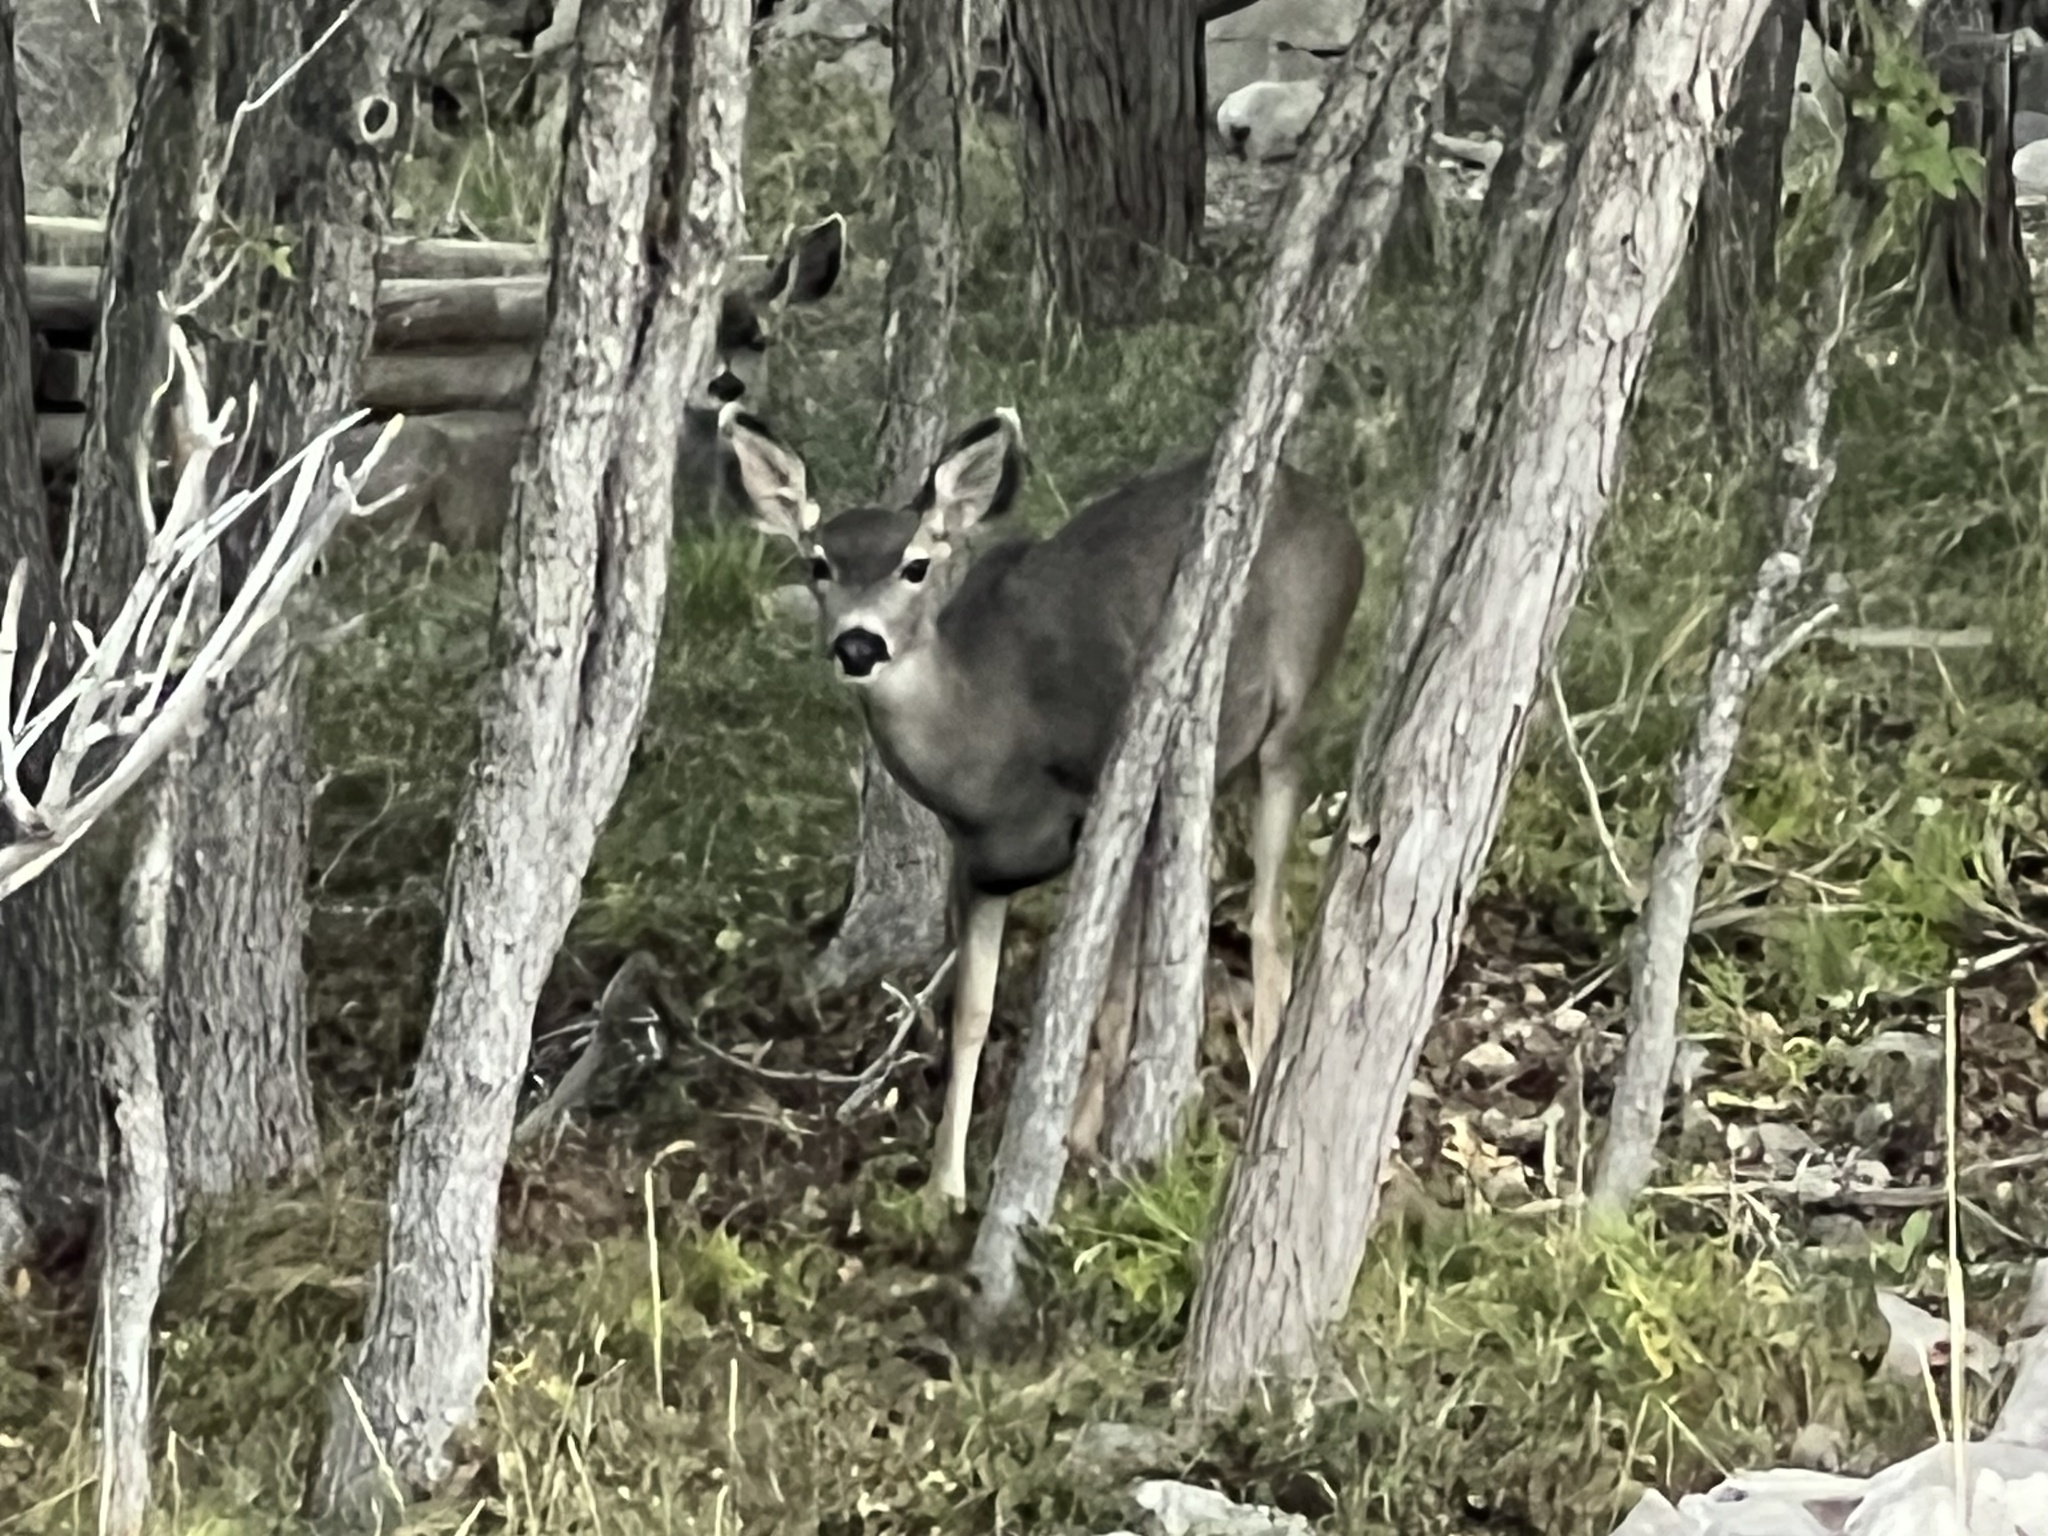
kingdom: Animalia
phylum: Chordata
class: Mammalia
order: Artiodactyla
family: Cervidae
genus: Odocoileus
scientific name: Odocoileus hemionus
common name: Mule deer
